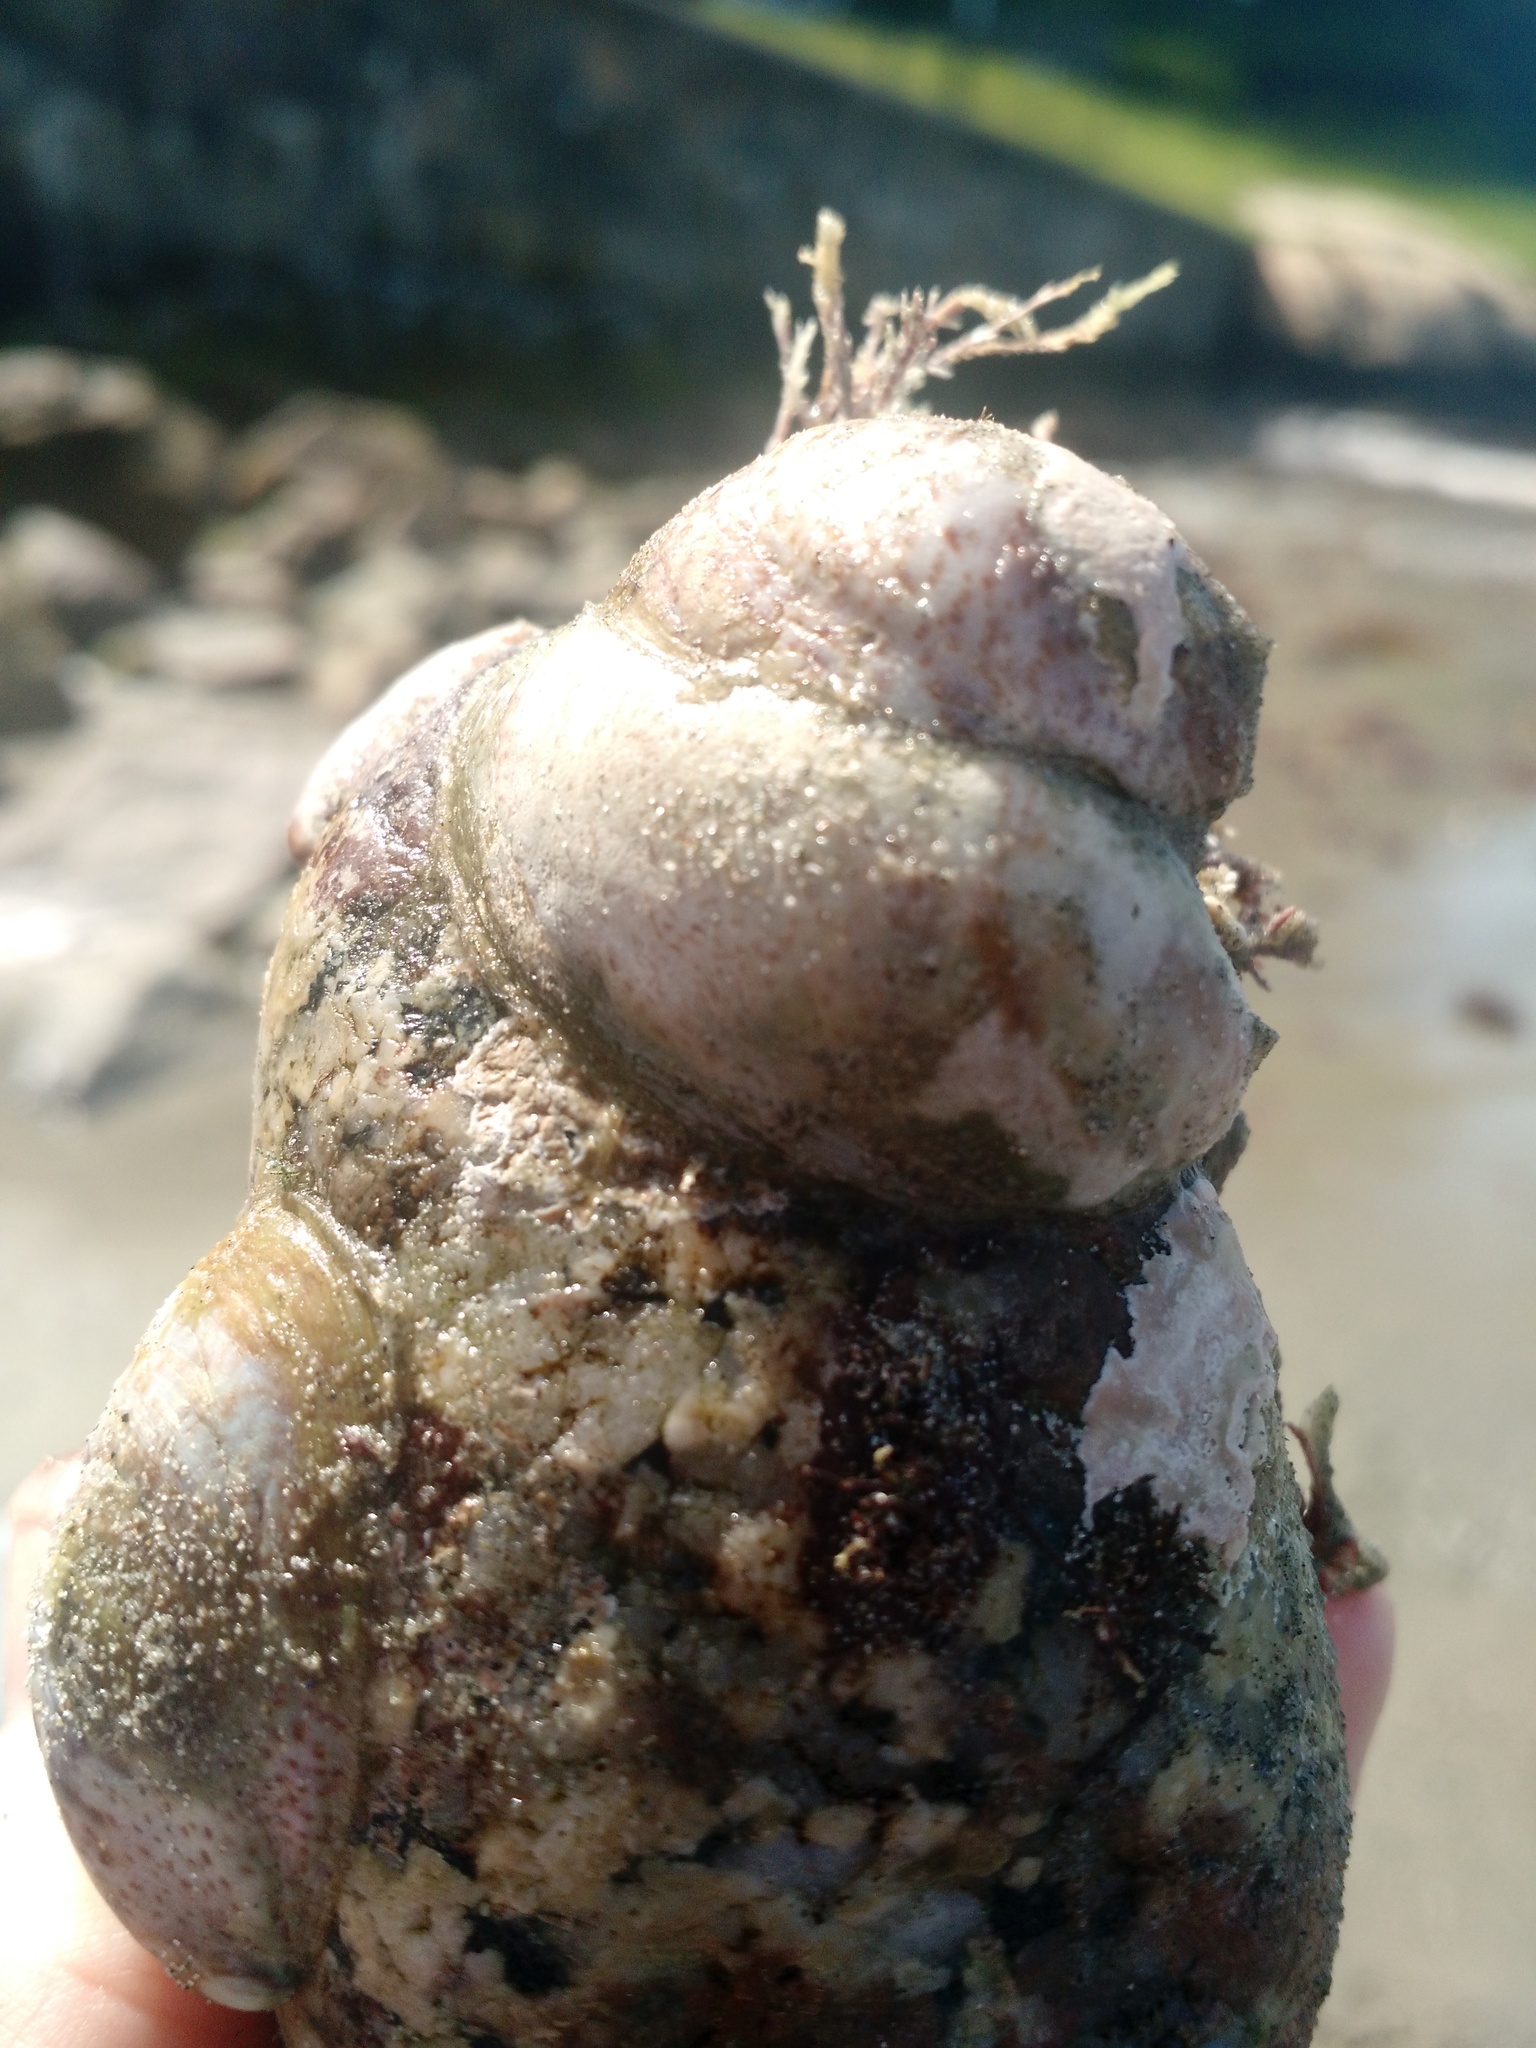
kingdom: Animalia
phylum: Mollusca
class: Gastropoda
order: Littorinimorpha
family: Calyptraeidae
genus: Crepidula
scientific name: Crepidula fornicata
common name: Slipper limpet
